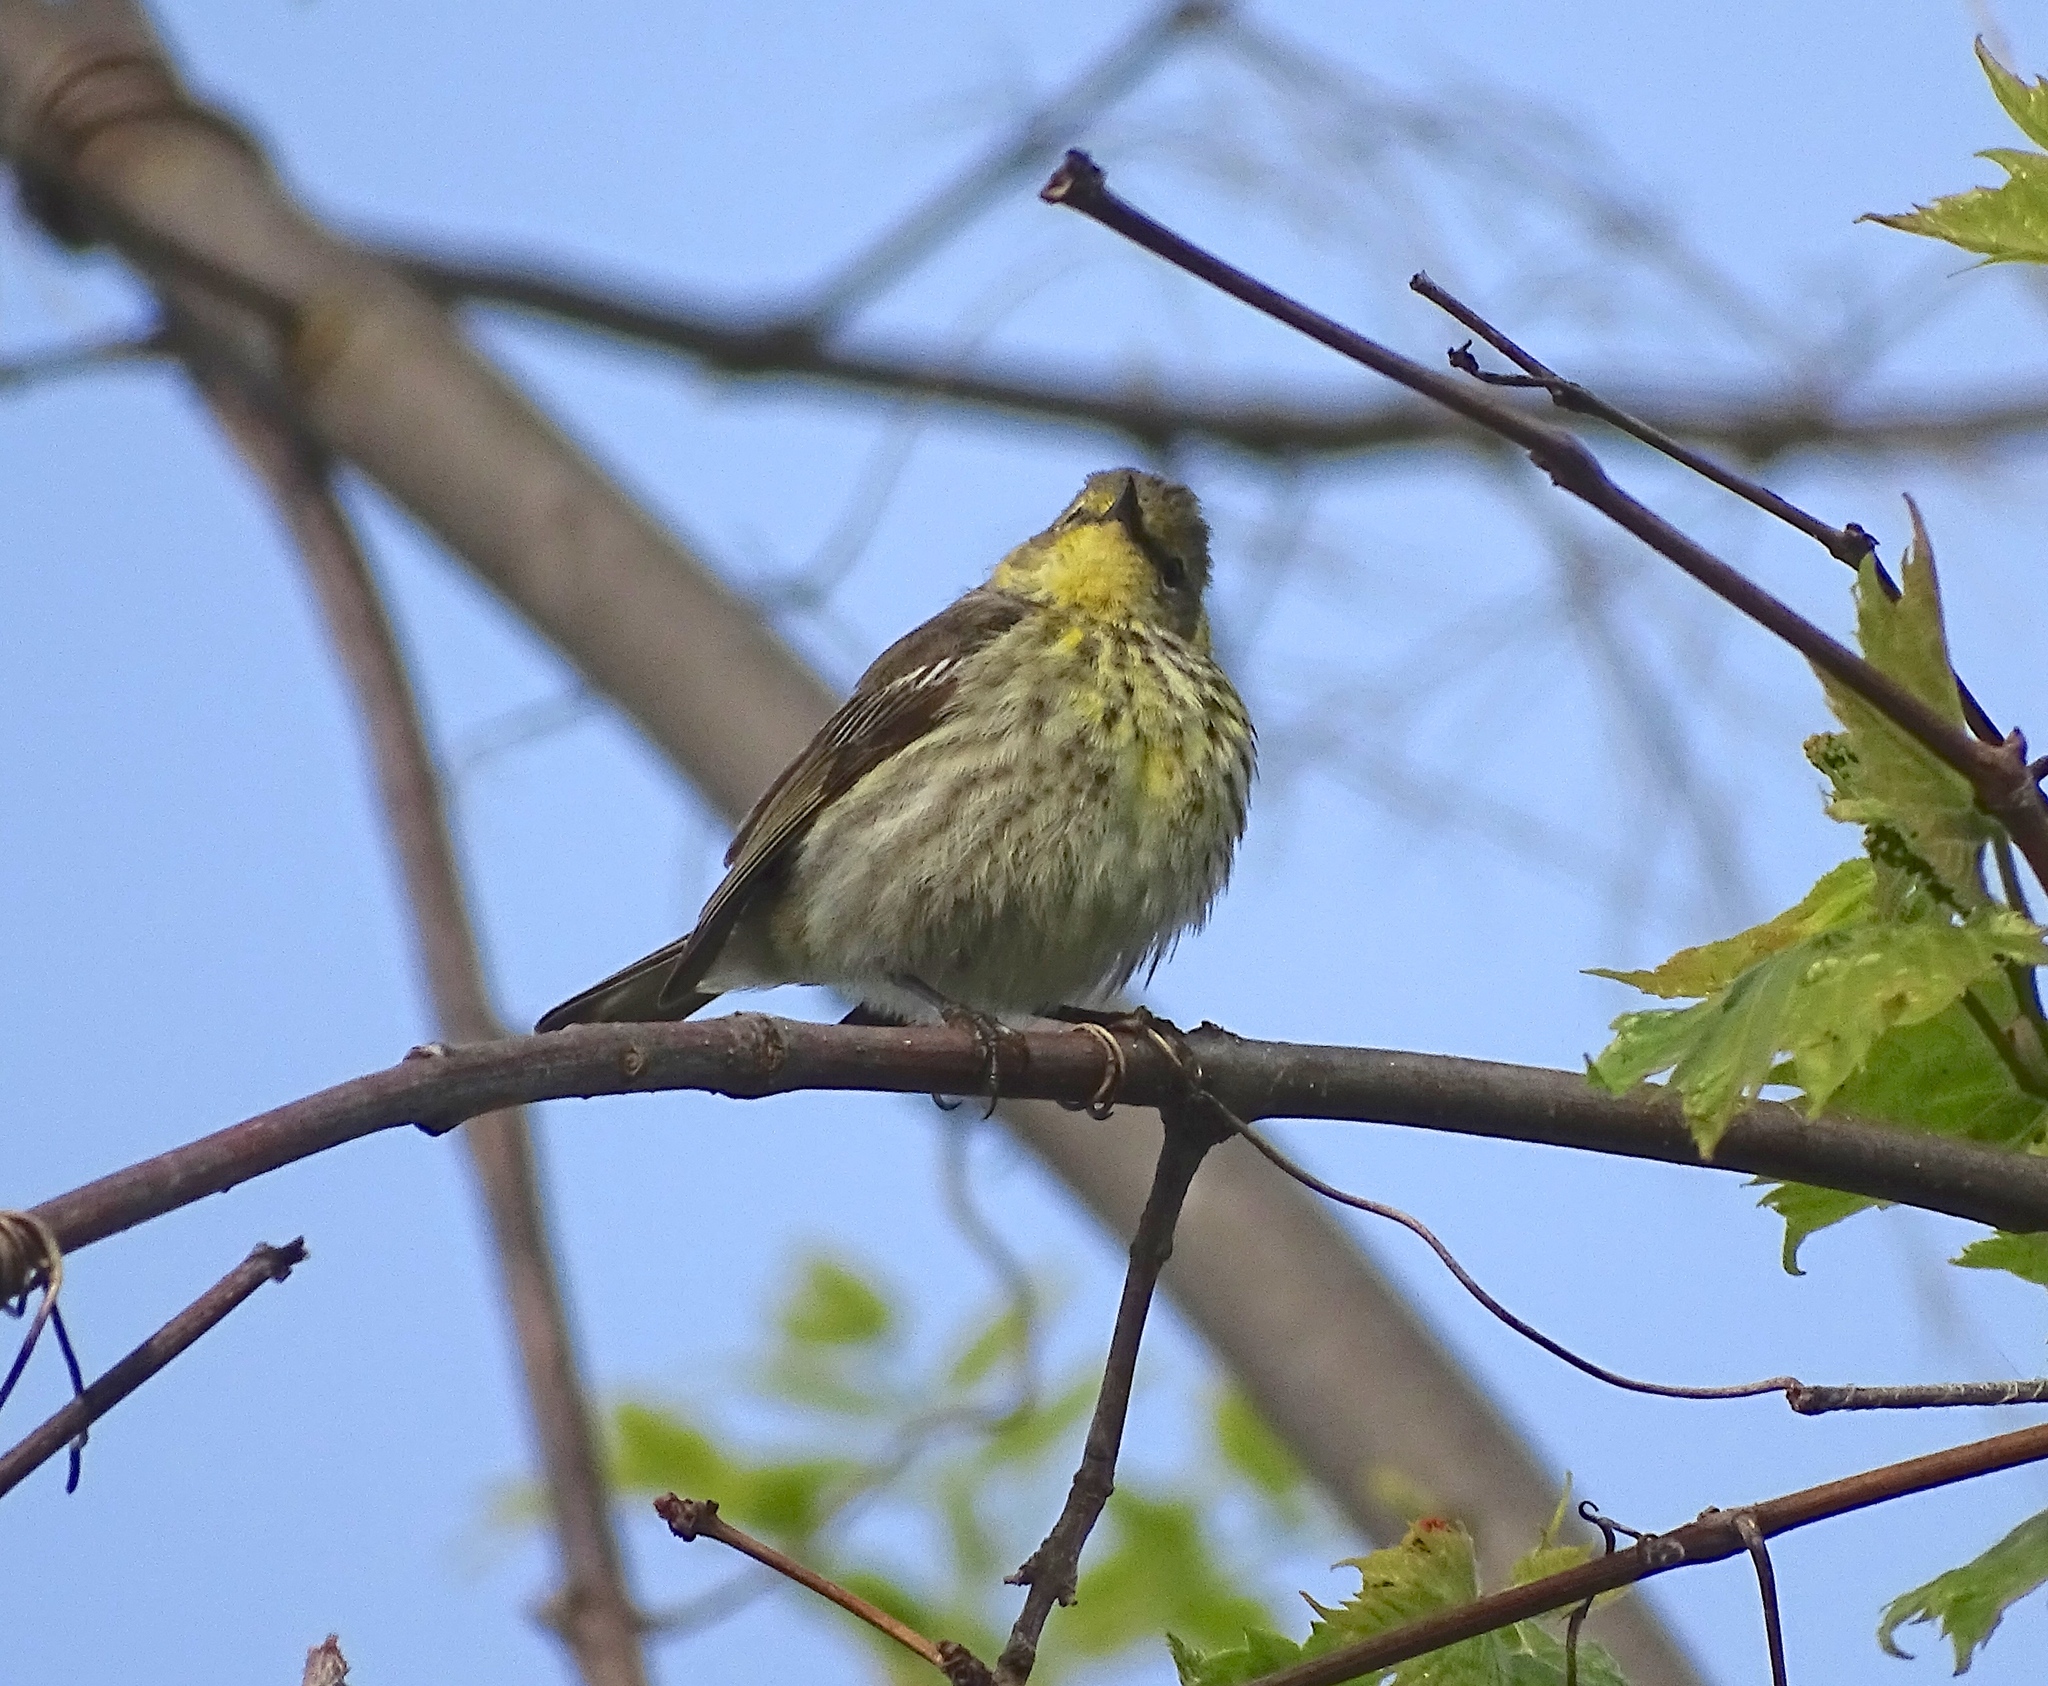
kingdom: Animalia
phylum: Chordata
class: Aves
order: Passeriformes
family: Parulidae
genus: Setophaga
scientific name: Setophaga tigrina
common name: Cape may warbler
